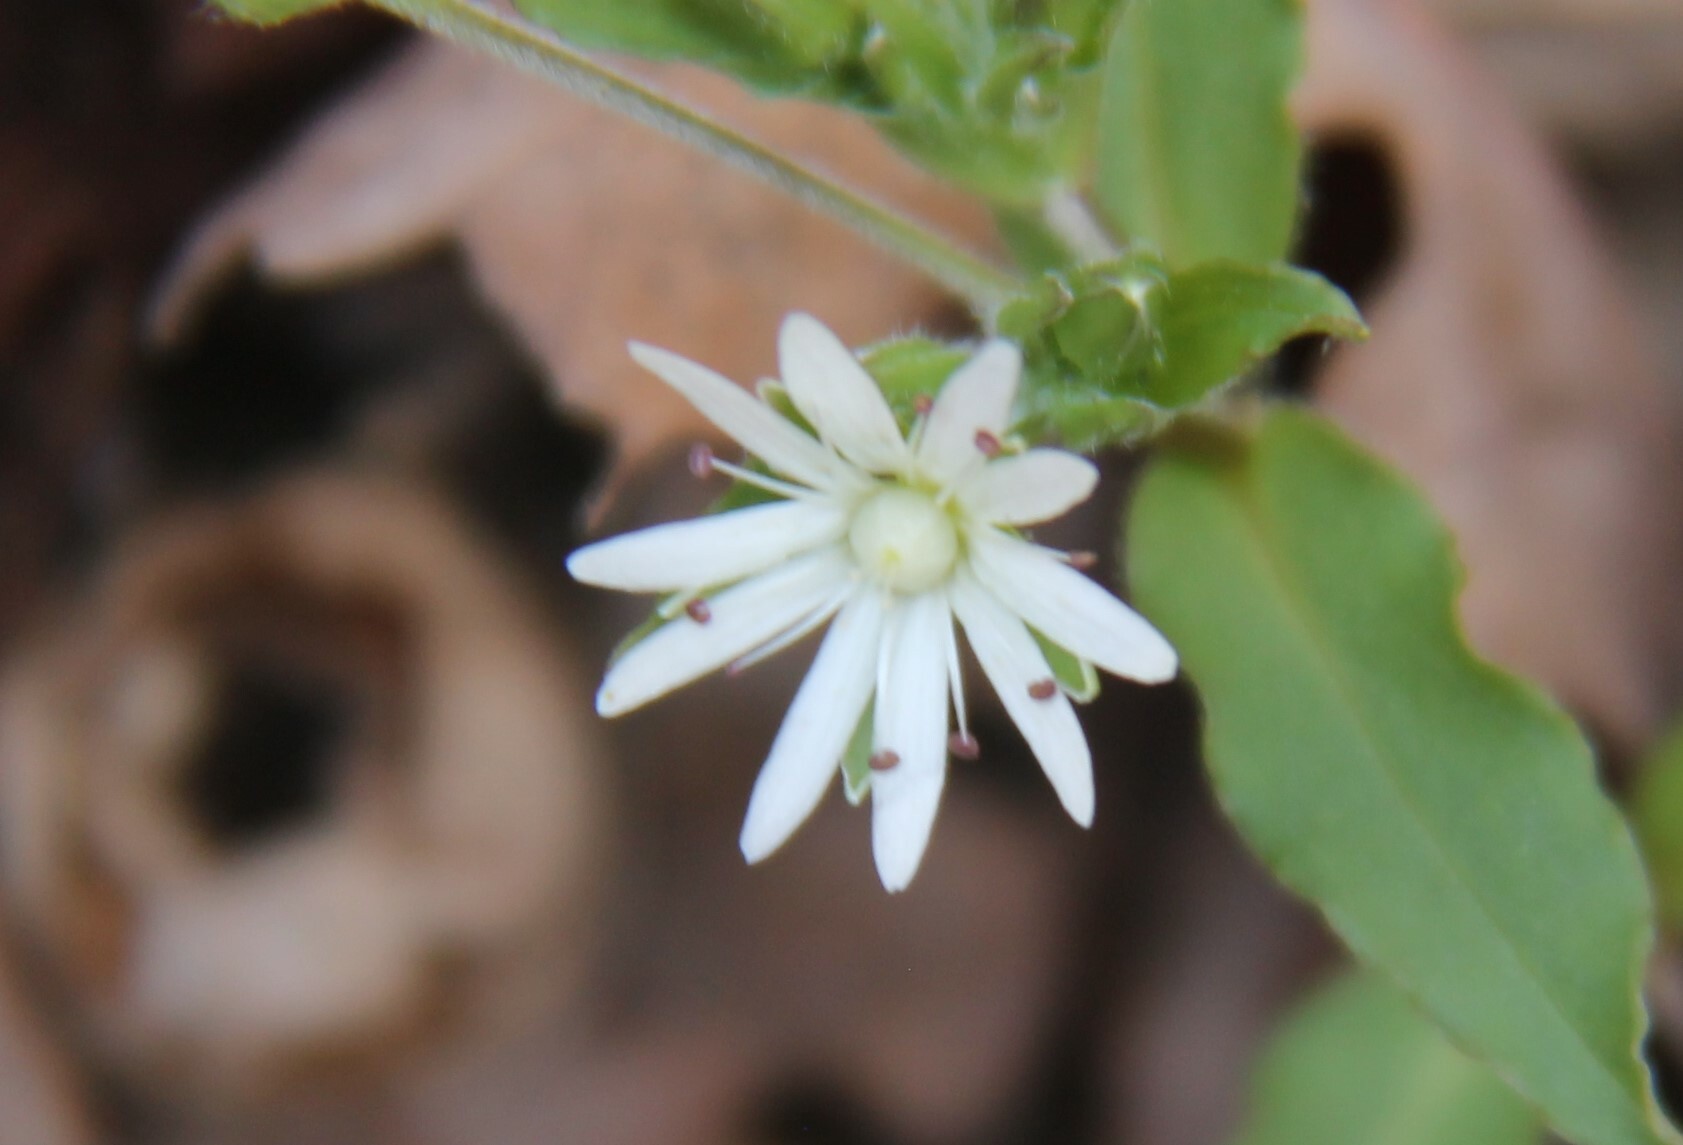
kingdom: Plantae
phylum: Tracheophyta
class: Magnoliopsida
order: Caryophyllales
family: Caryophyllaceae
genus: Stellaria
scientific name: Stellaria pubera
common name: Star chickweed
